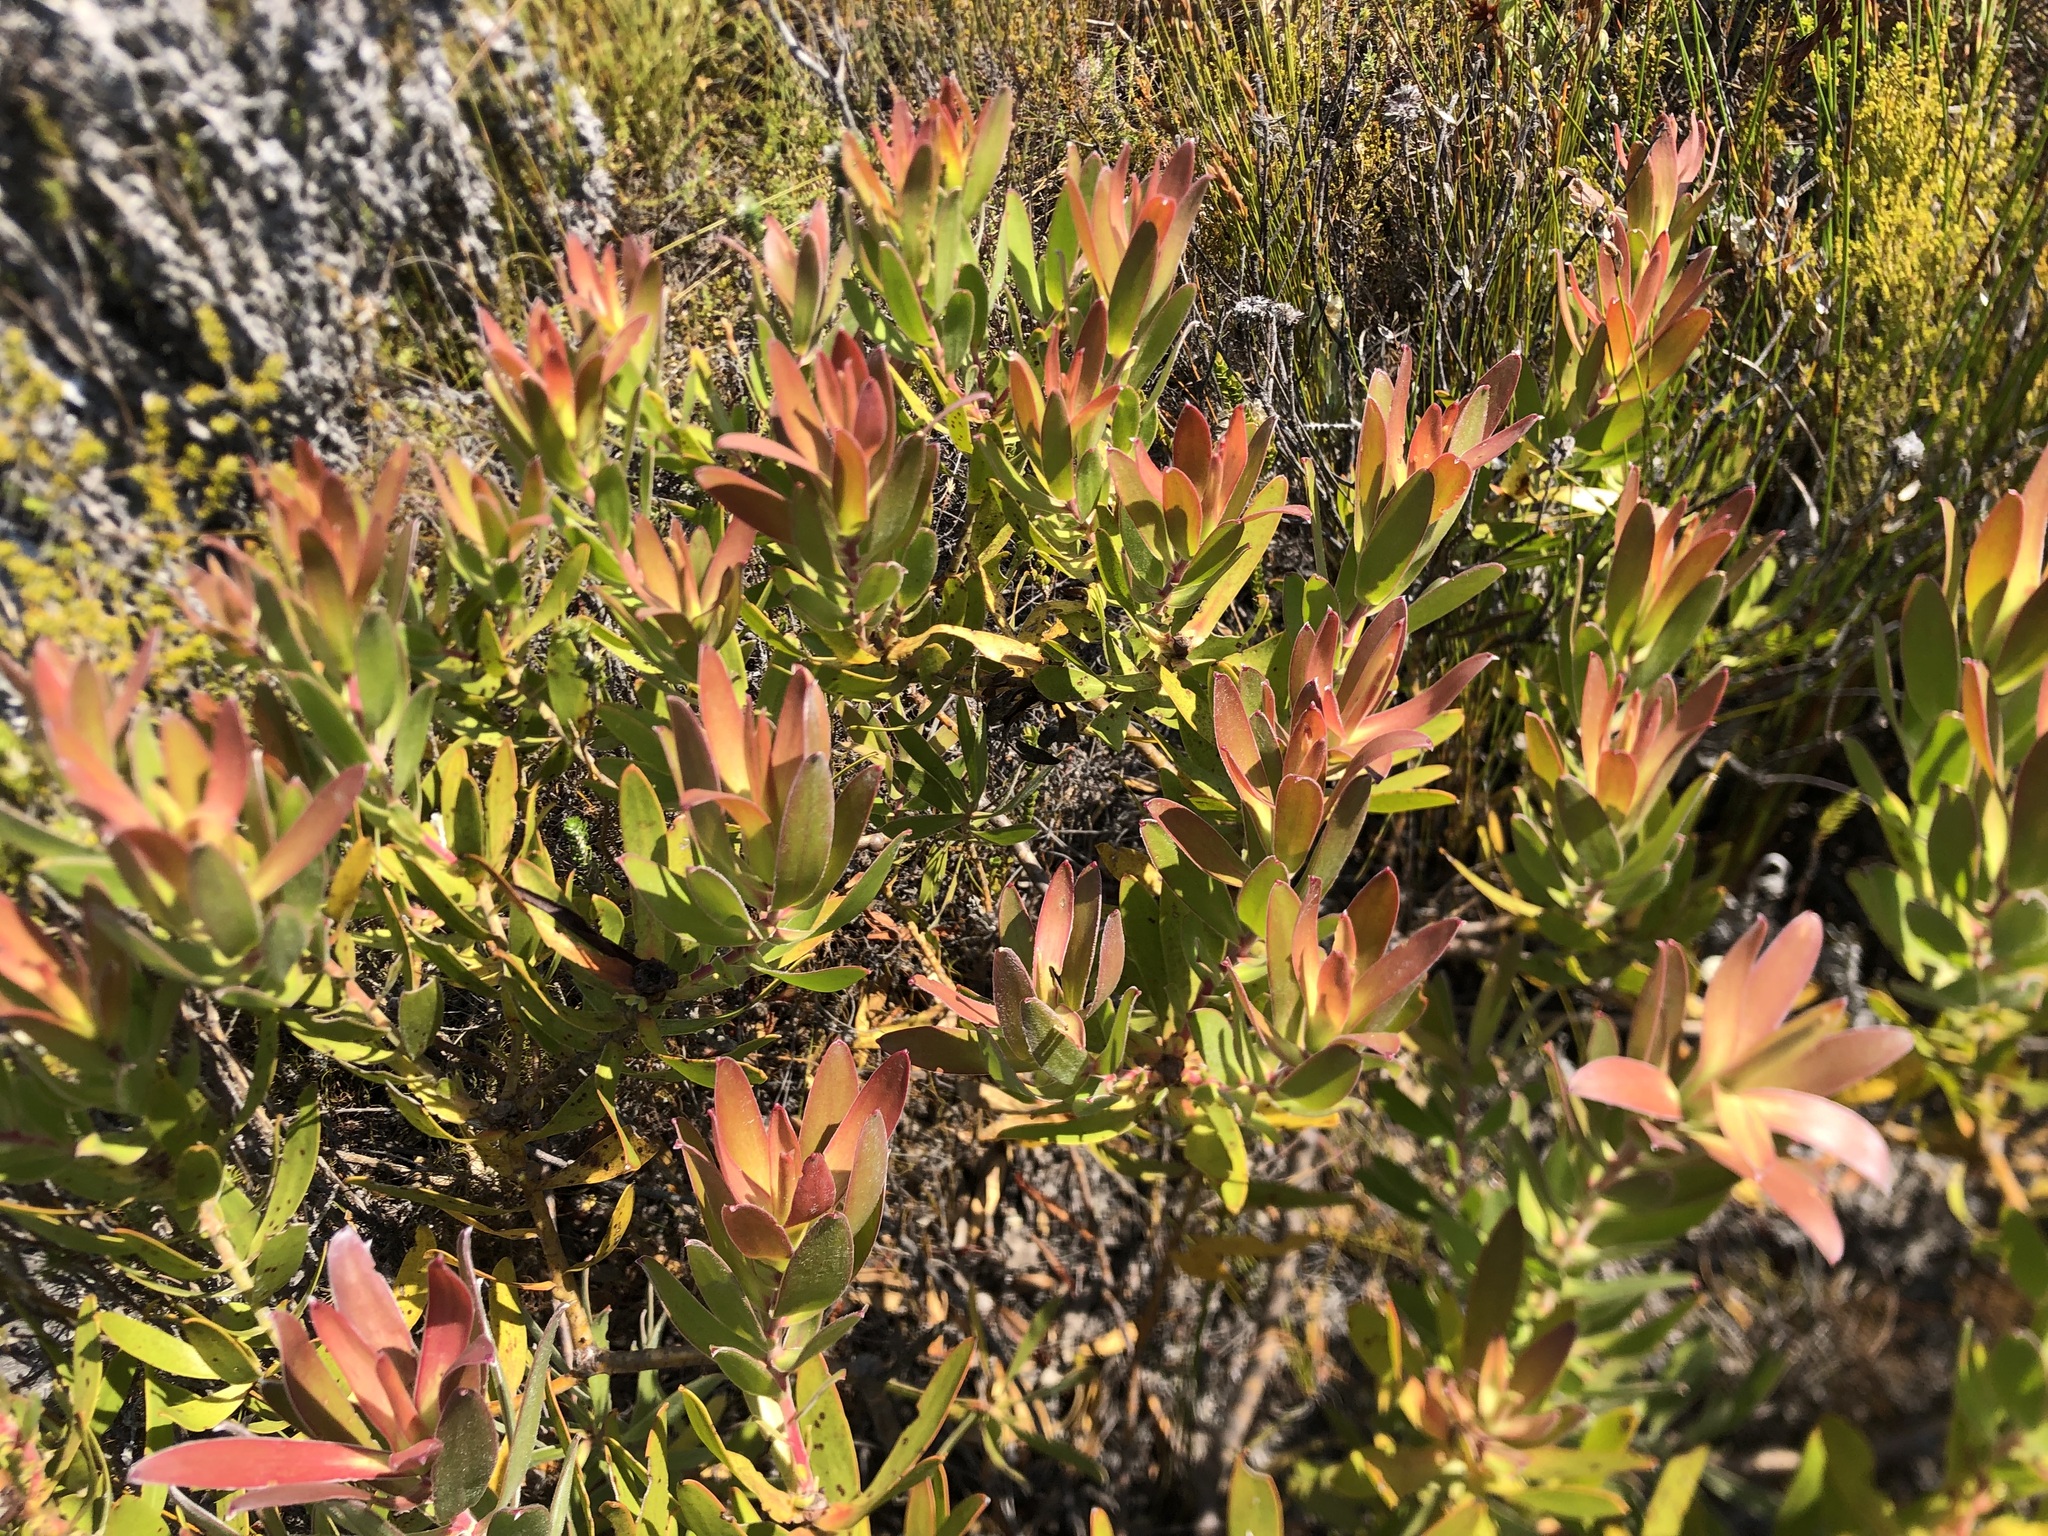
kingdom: Plantae
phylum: Tracheophyta
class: Magnoliopsida
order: Proteales
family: Proteaceae
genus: Leucadendron
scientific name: Leucadendron laureolum
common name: Golden sunshinebush
